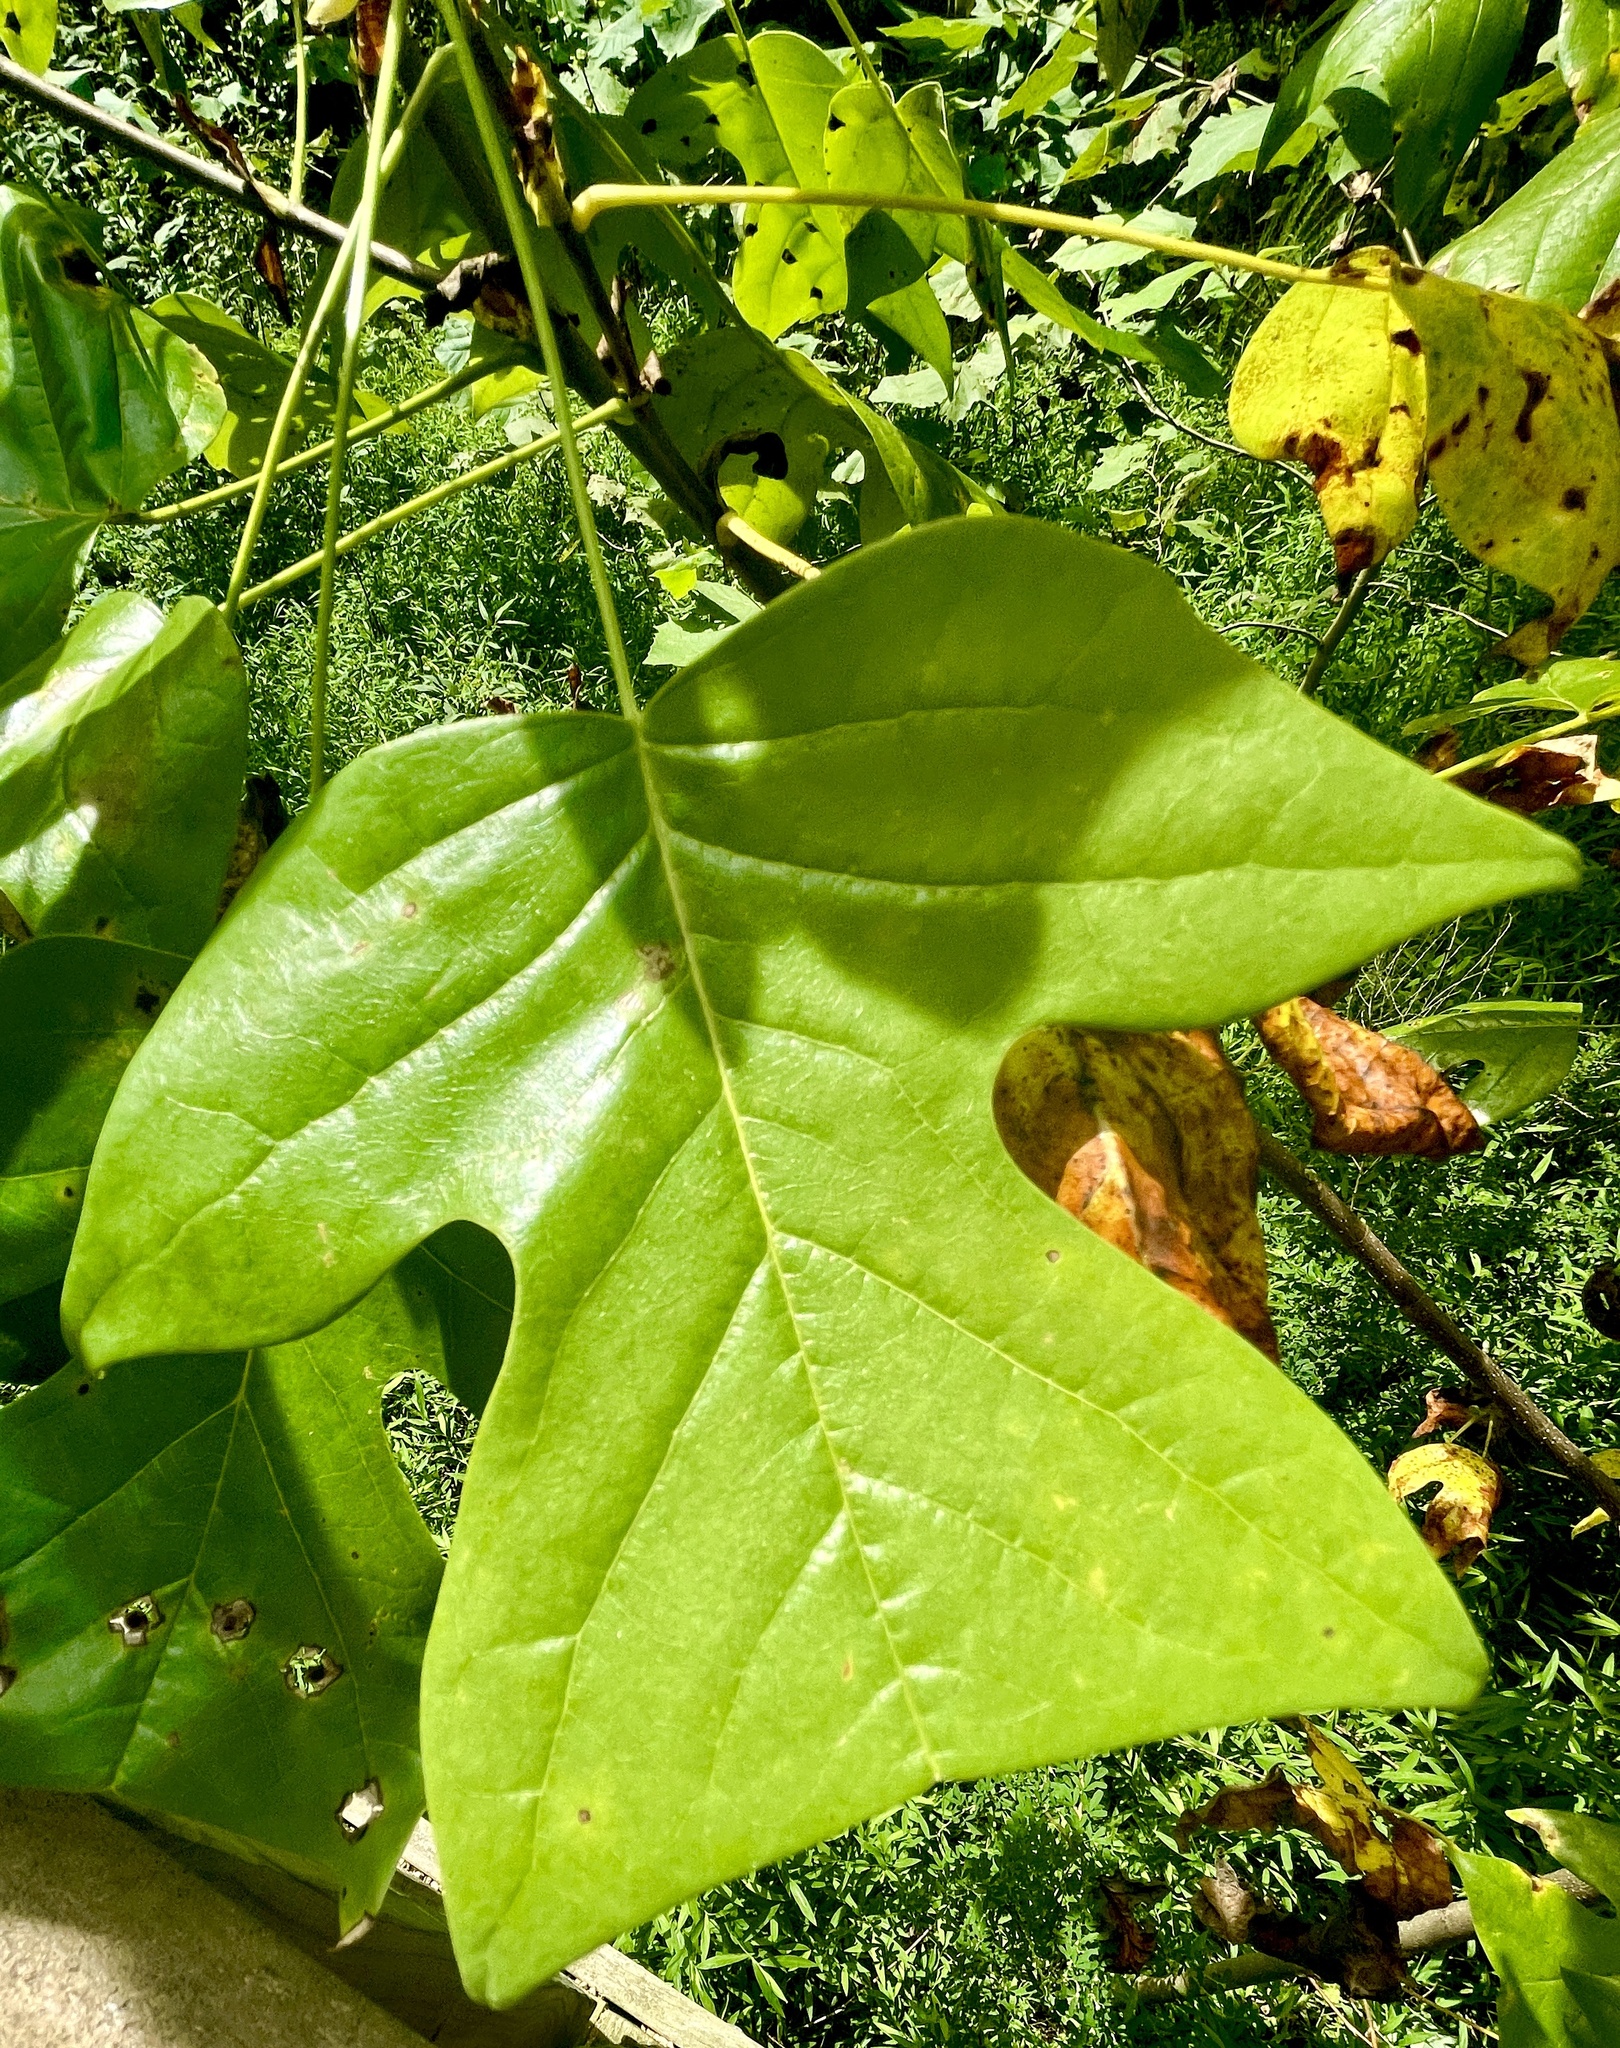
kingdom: Plantae
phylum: Tracheophyta
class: Magnoliopsida
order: Magnoliales
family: Magnoliaceae
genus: Liriodendron
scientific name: Liriodendron tulipifera
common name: Tulip tree
